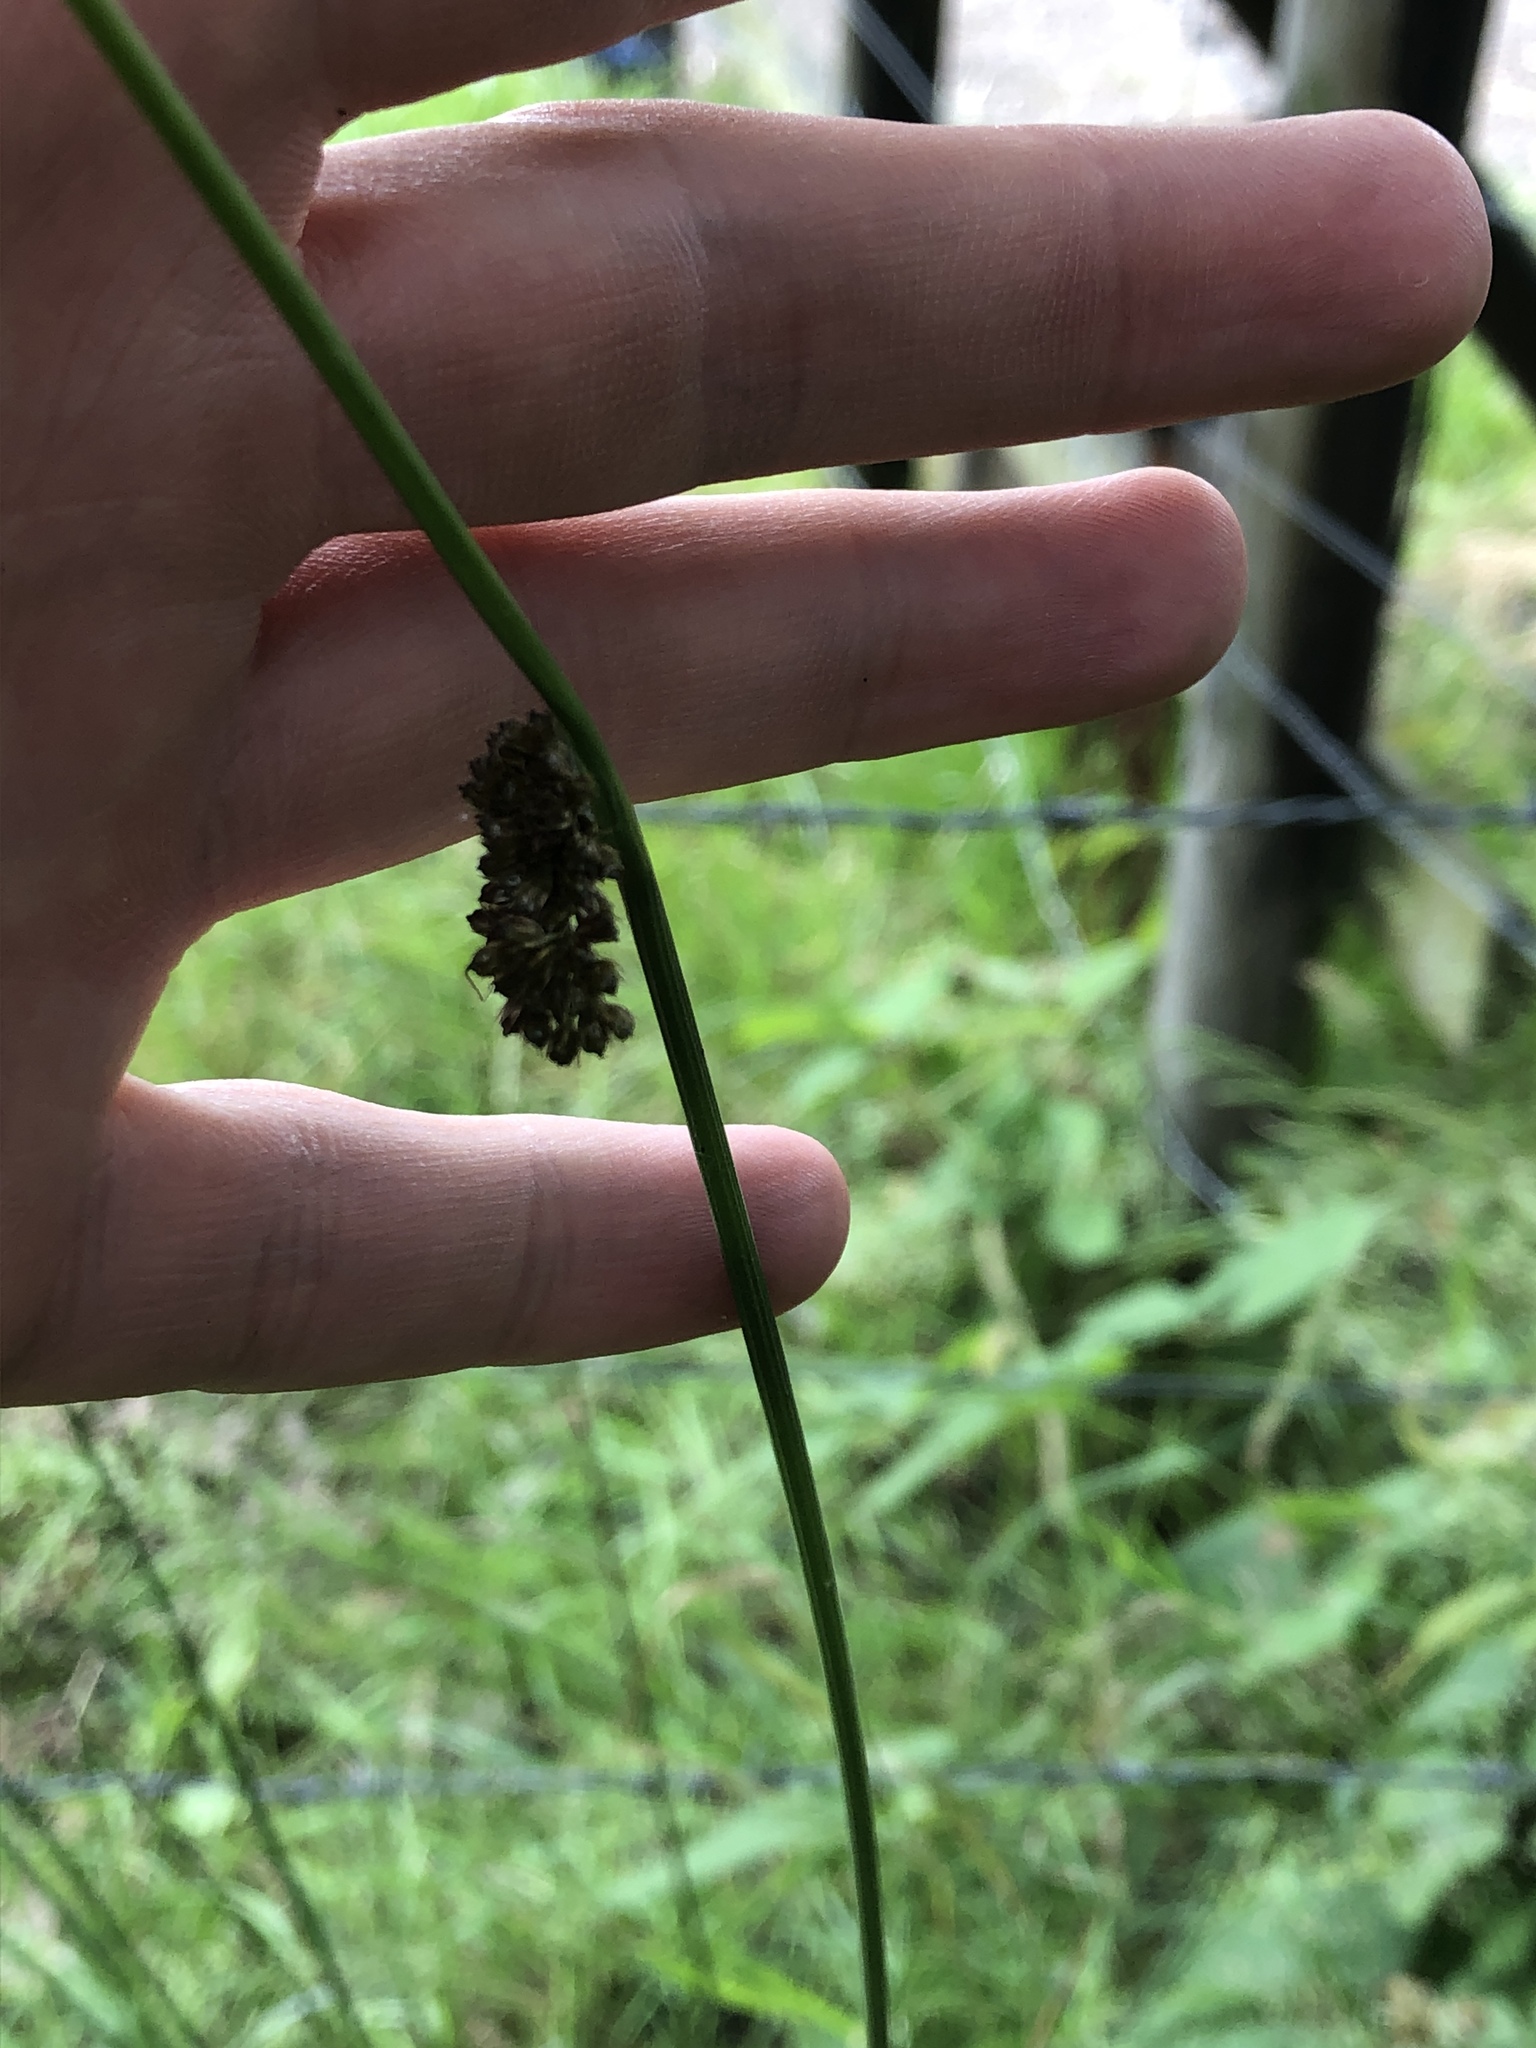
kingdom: Plantae
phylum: Tracheophyta
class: Liliopsida
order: Poales
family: Juncaceae
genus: Juncus
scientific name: Juncus conglomeratus
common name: Compact rush
